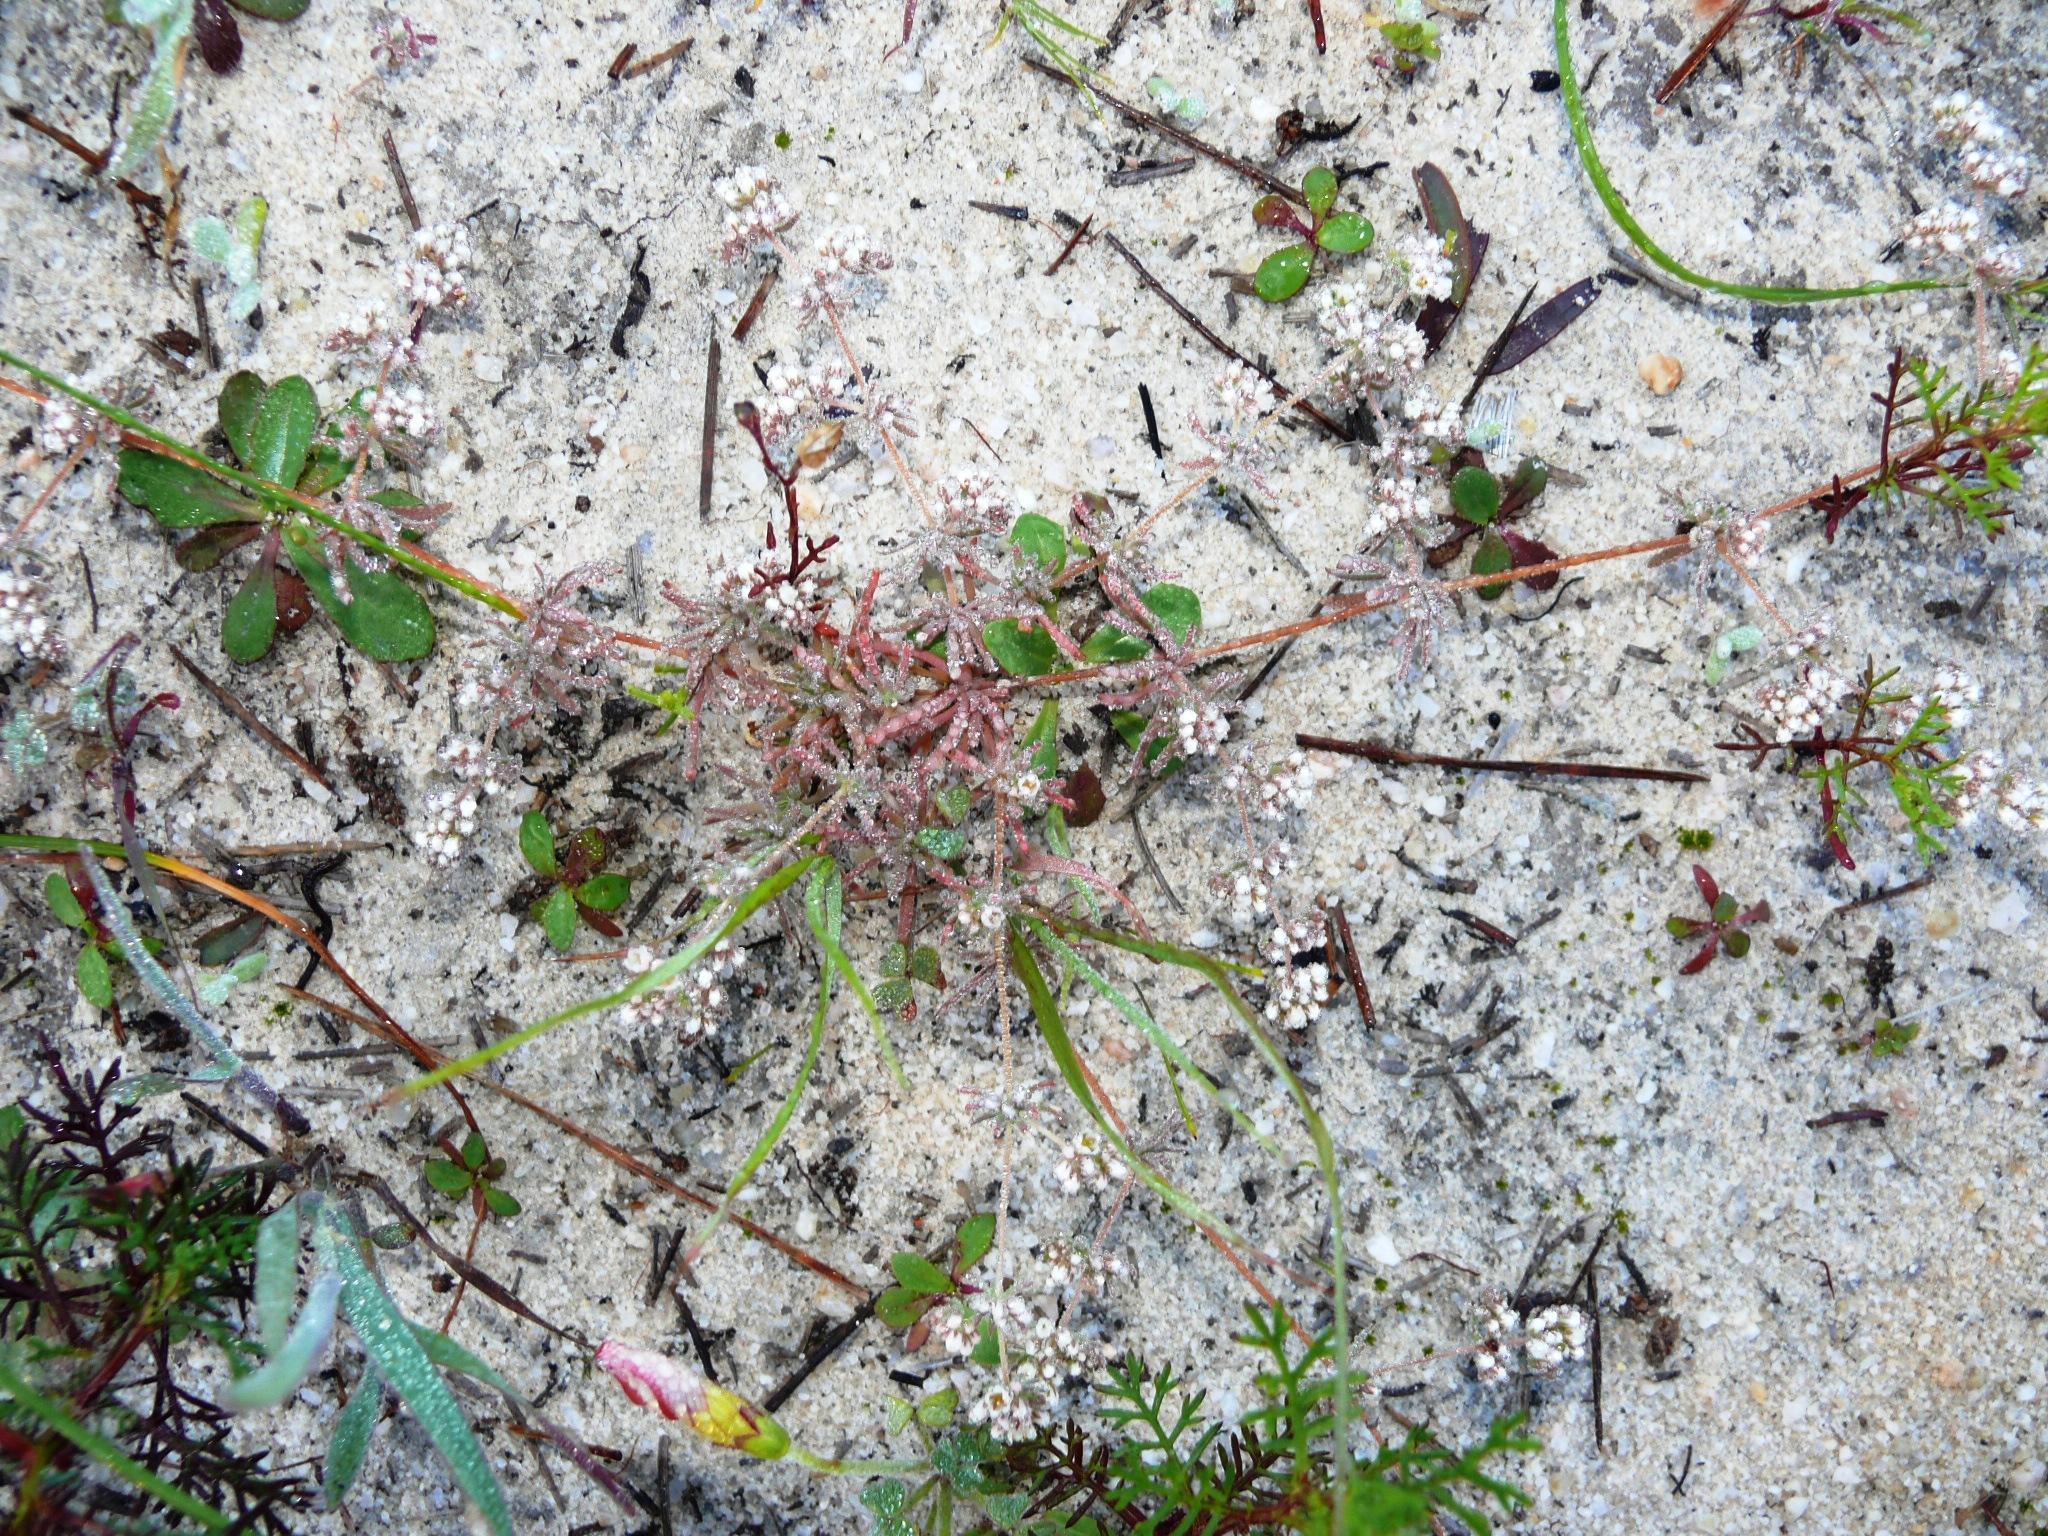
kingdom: Plantae
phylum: Tracheophyta
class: Magnoliopsida
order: Caryophyllales
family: Molluginaceae
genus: Adenogramma
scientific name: Adenogramma glomerata
